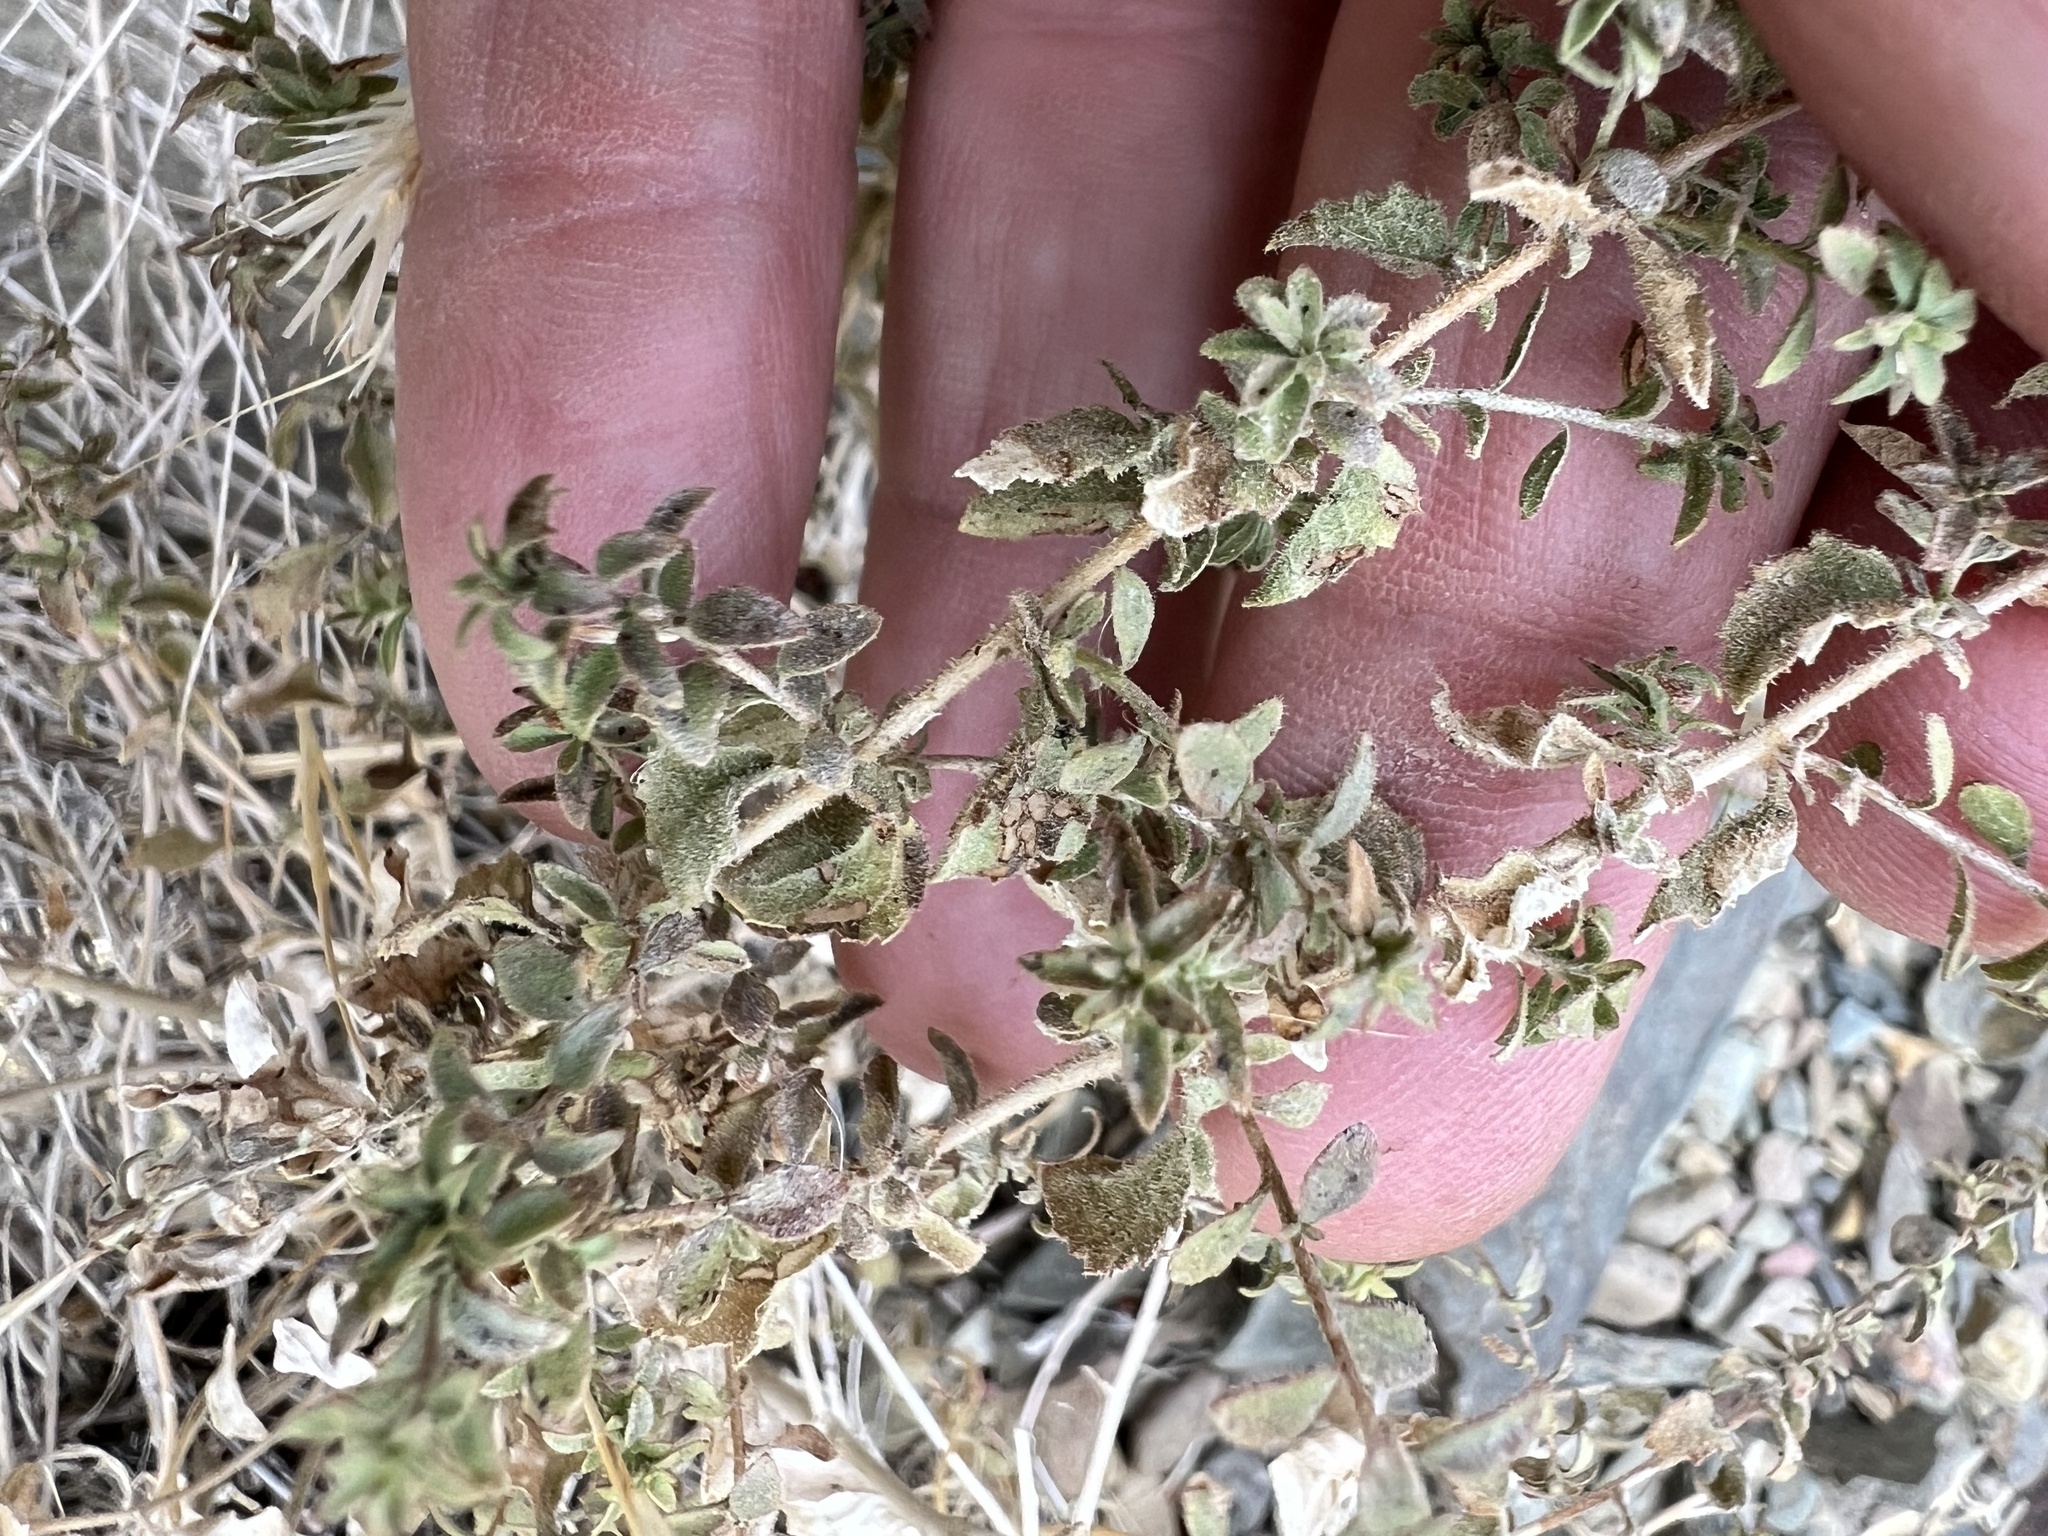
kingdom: Plantae
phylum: Tracheophyta
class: Magnoliopsida
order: Asterales
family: Asteraceae
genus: Brickellia
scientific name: Brickellia microphylla
